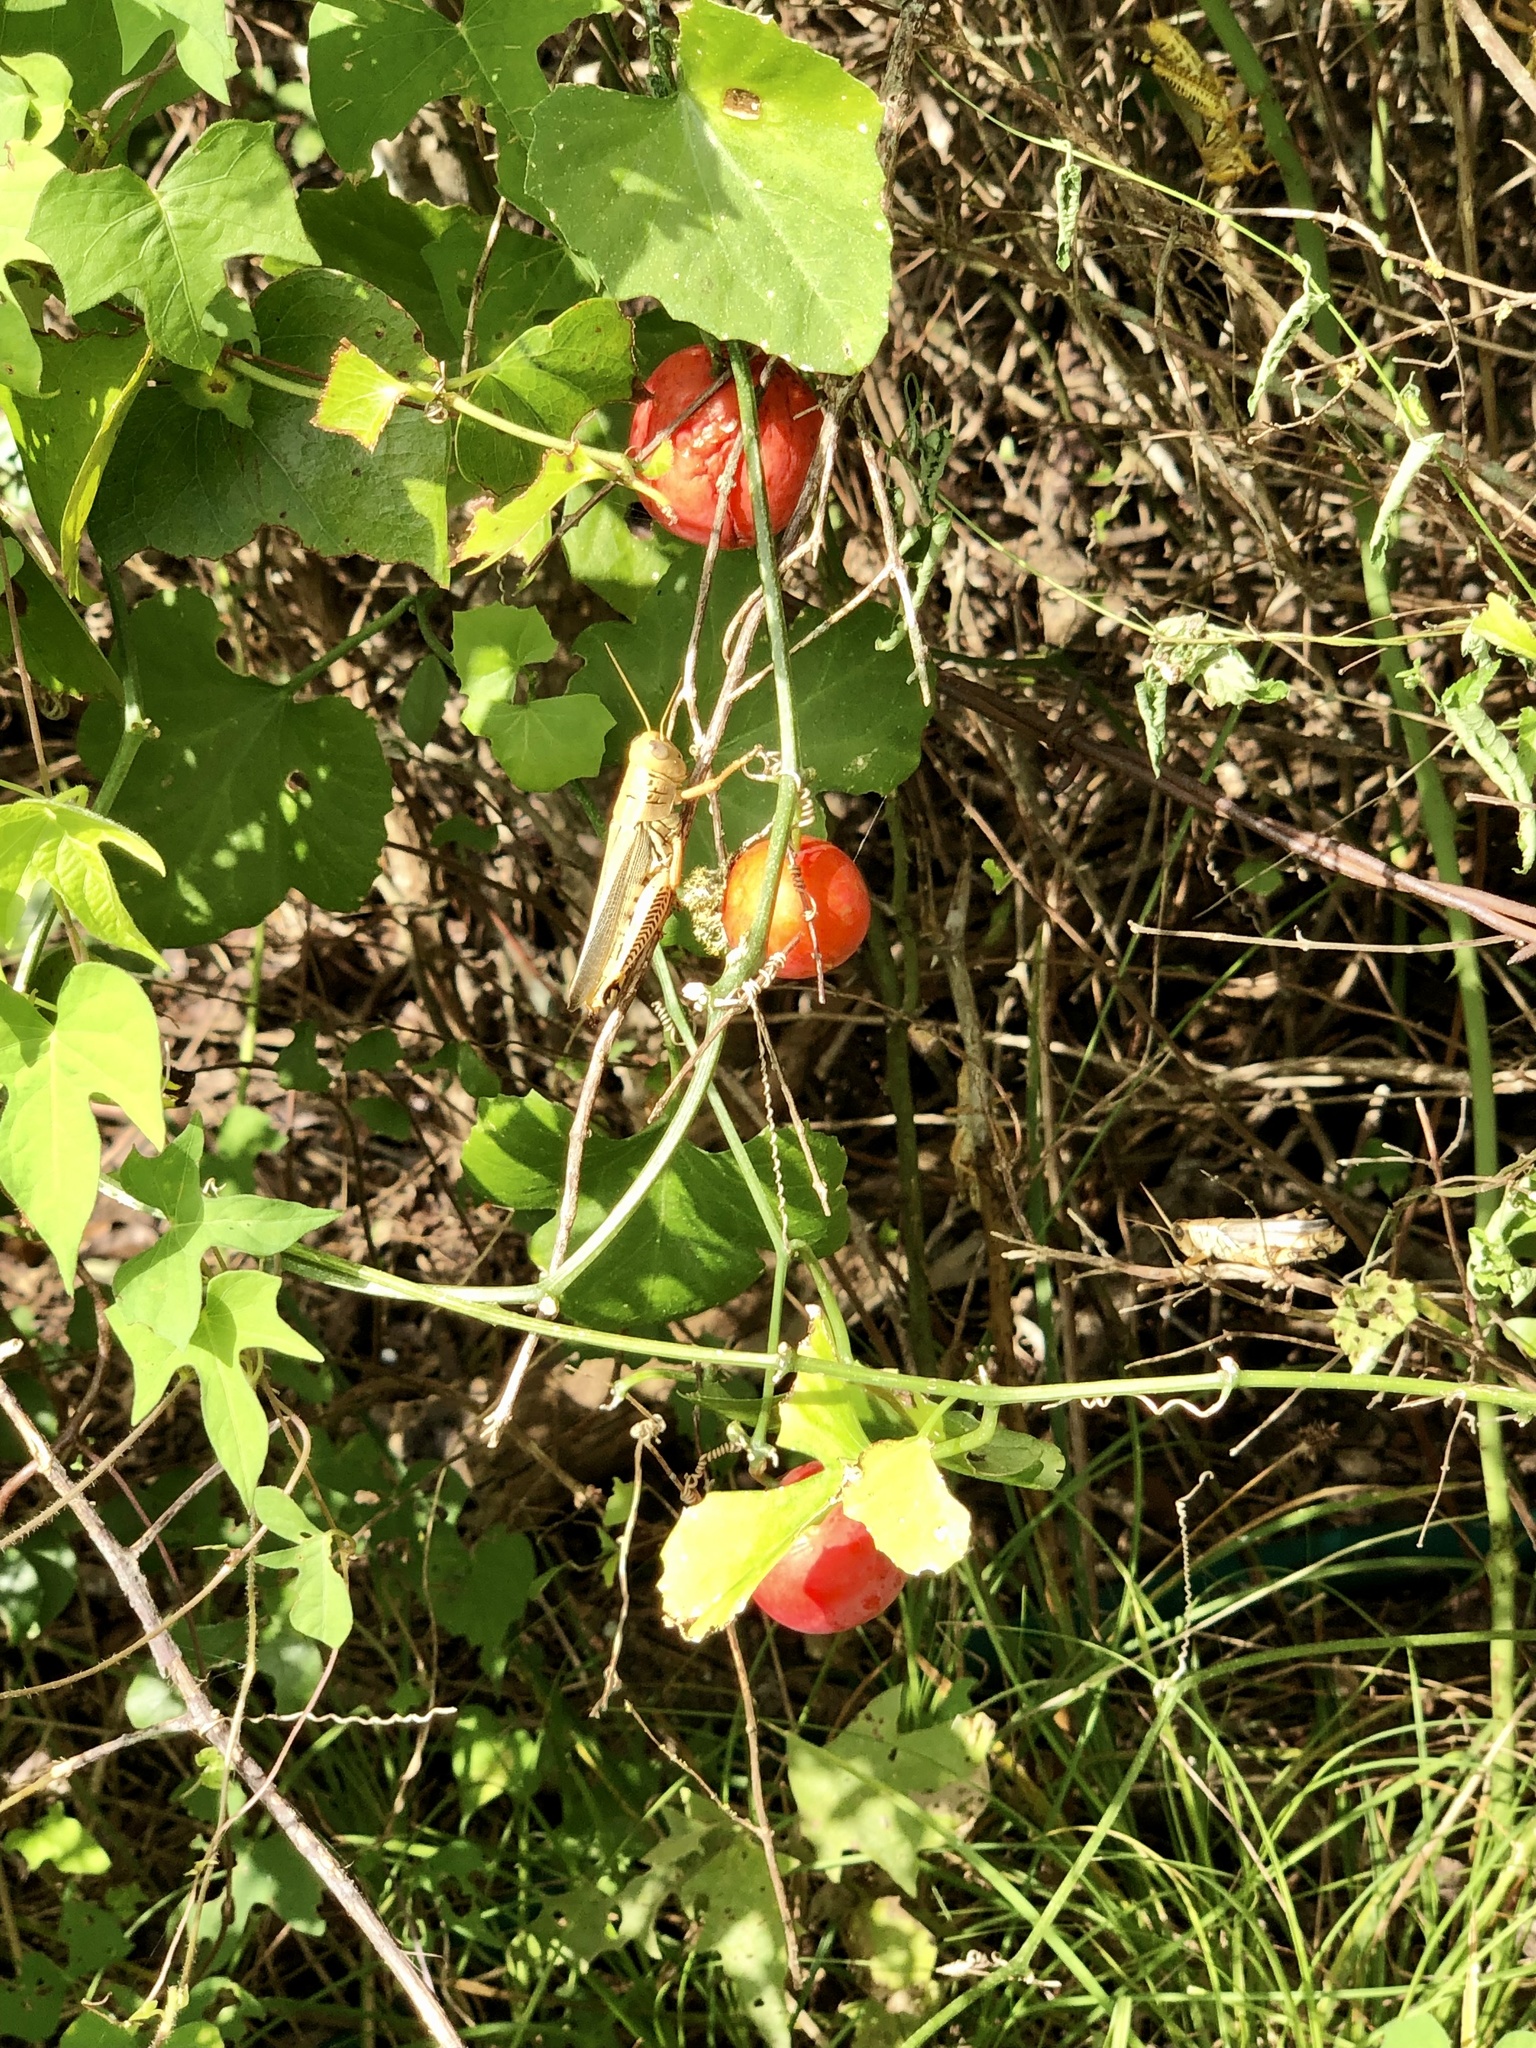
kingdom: Plantae
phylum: Tracheophyta
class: Magnoliopsida
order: Cucurbitales
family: Cucurbitaceae
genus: Ibervillea
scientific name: Ibervillea lindheimeri
